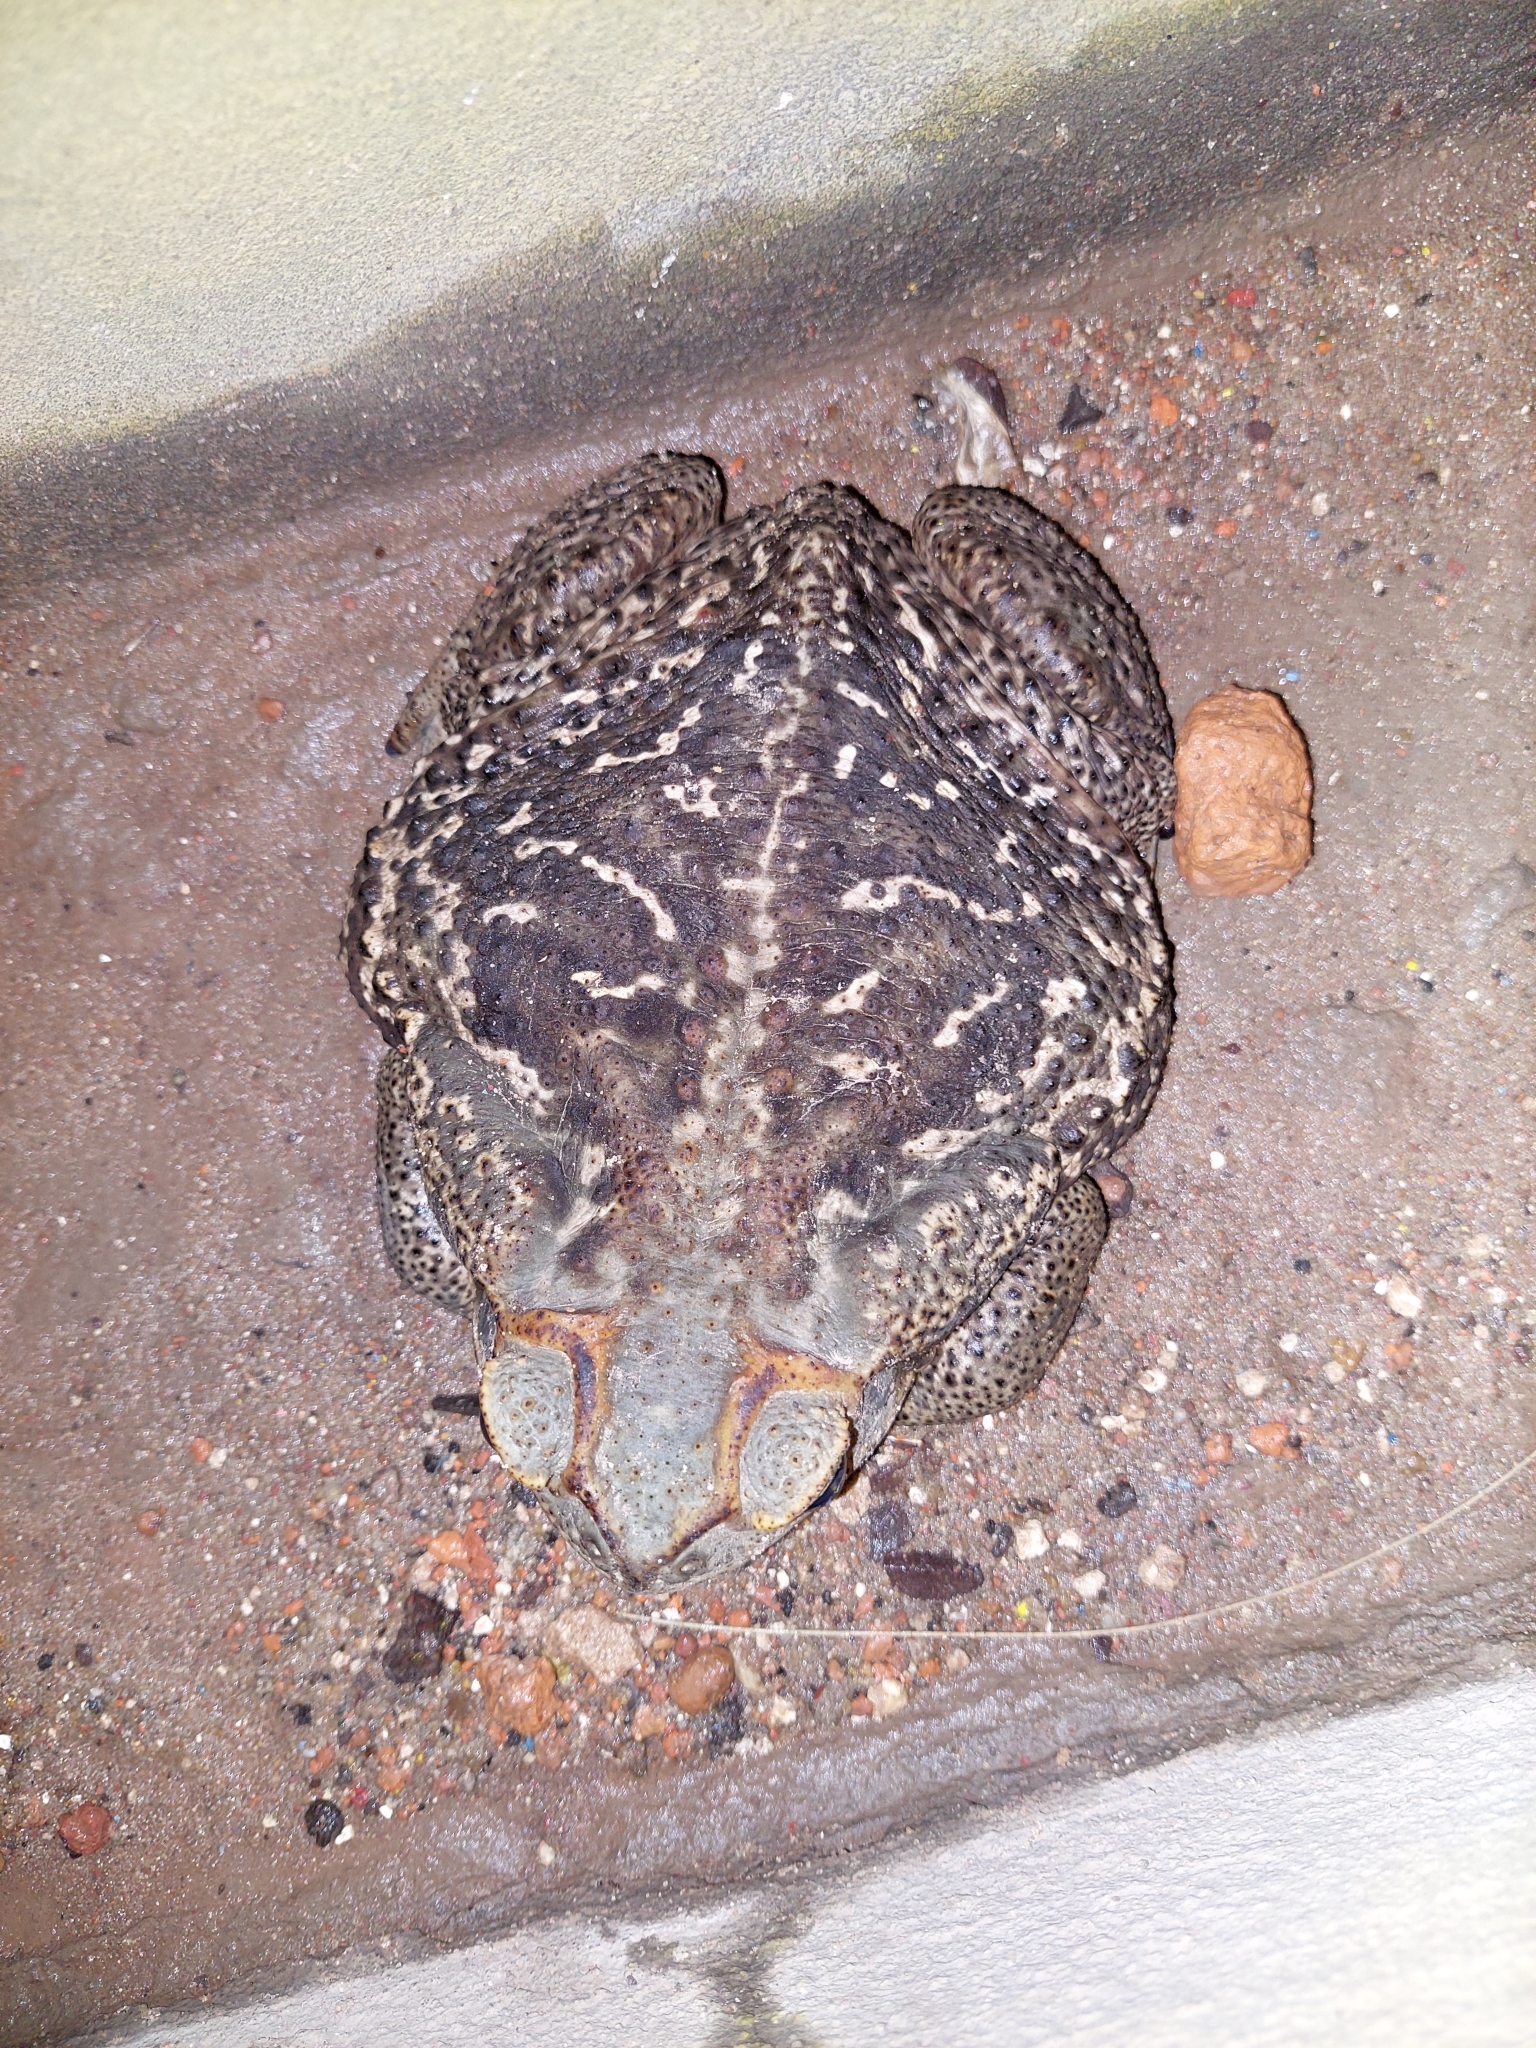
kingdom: Animalia
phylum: Chordata
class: Amphibia
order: Anura
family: Bufonidae
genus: Rhinella
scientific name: Rhinella diptycha
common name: Cope's toad
